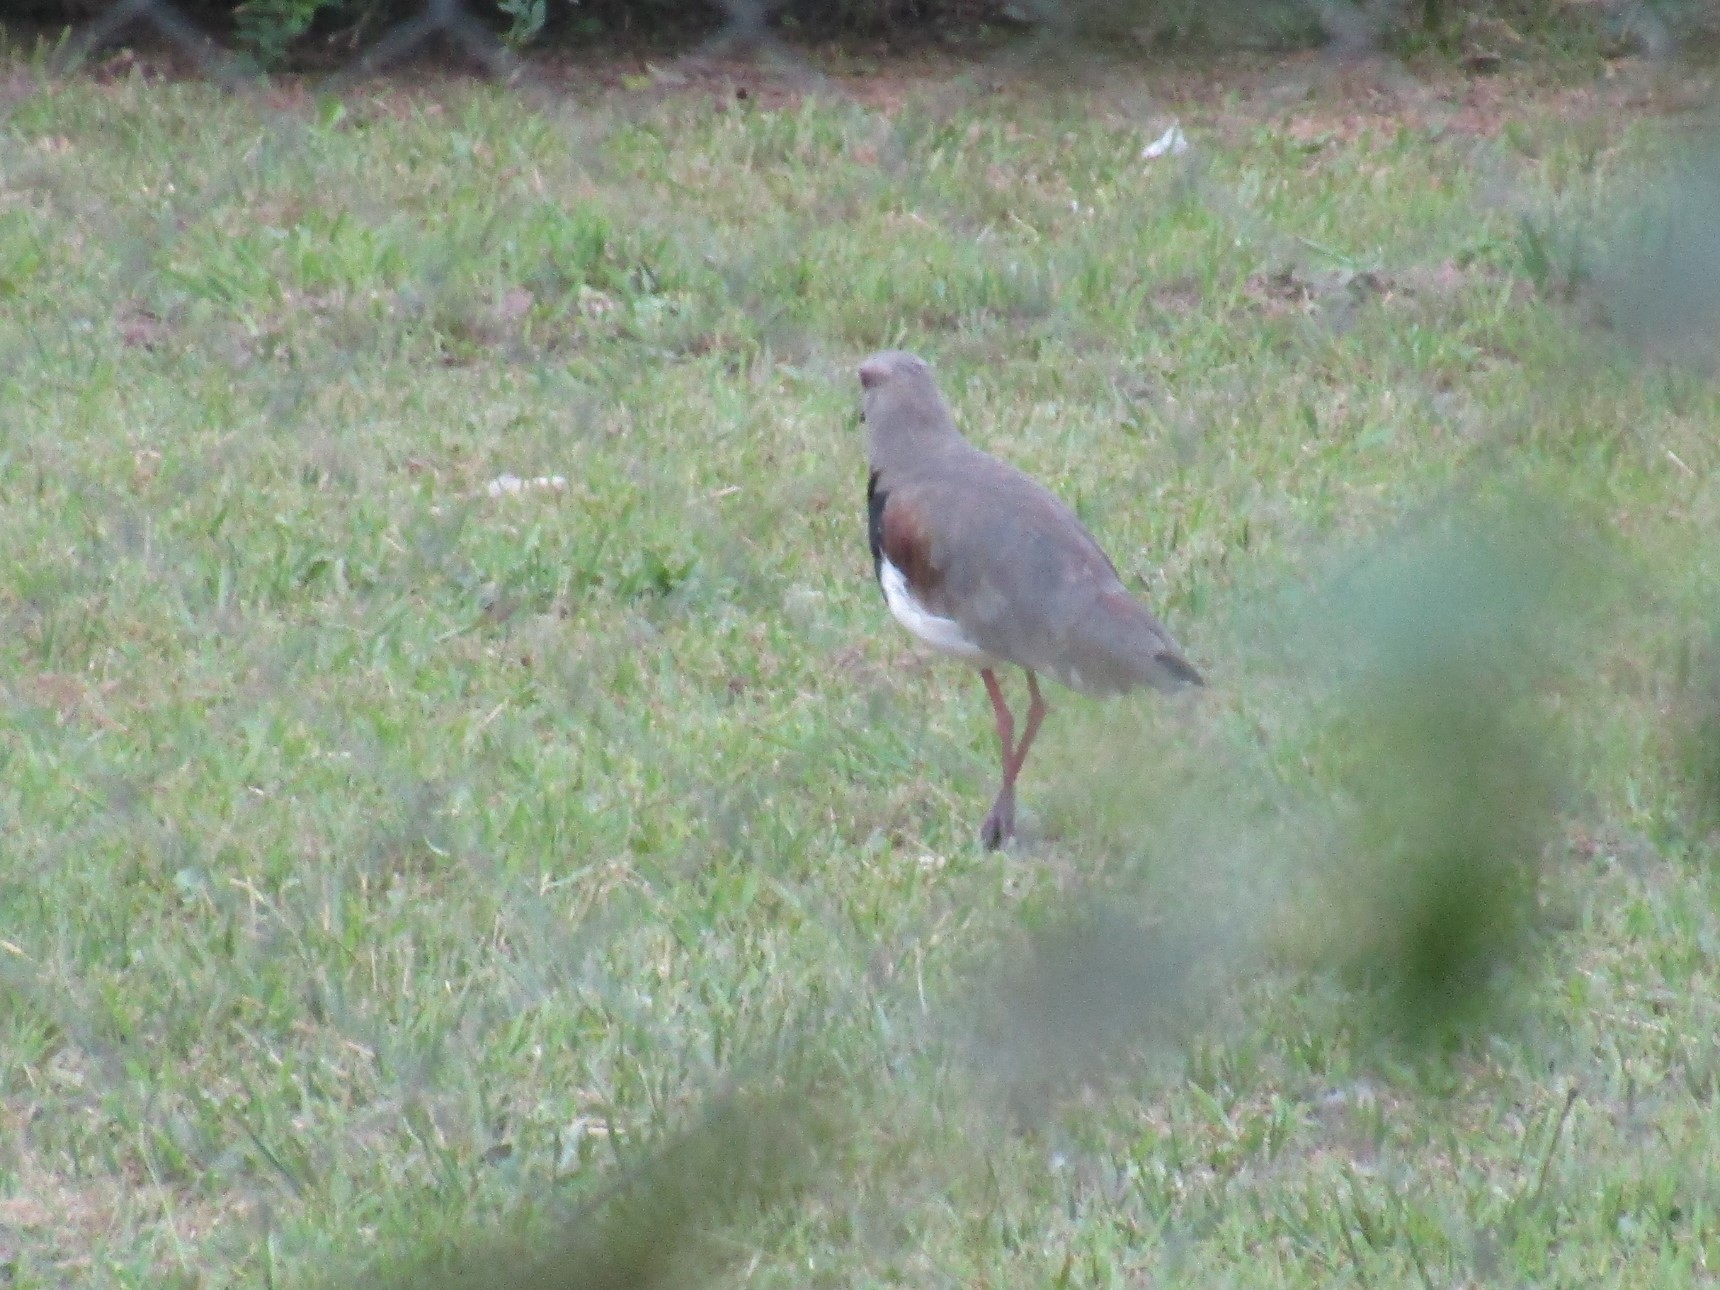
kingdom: Animalia
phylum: Chordata
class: Aves
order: Charadriiformes
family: Charadriidae
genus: Vanellus
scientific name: Vanellus chilensis
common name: Southern lapwing
